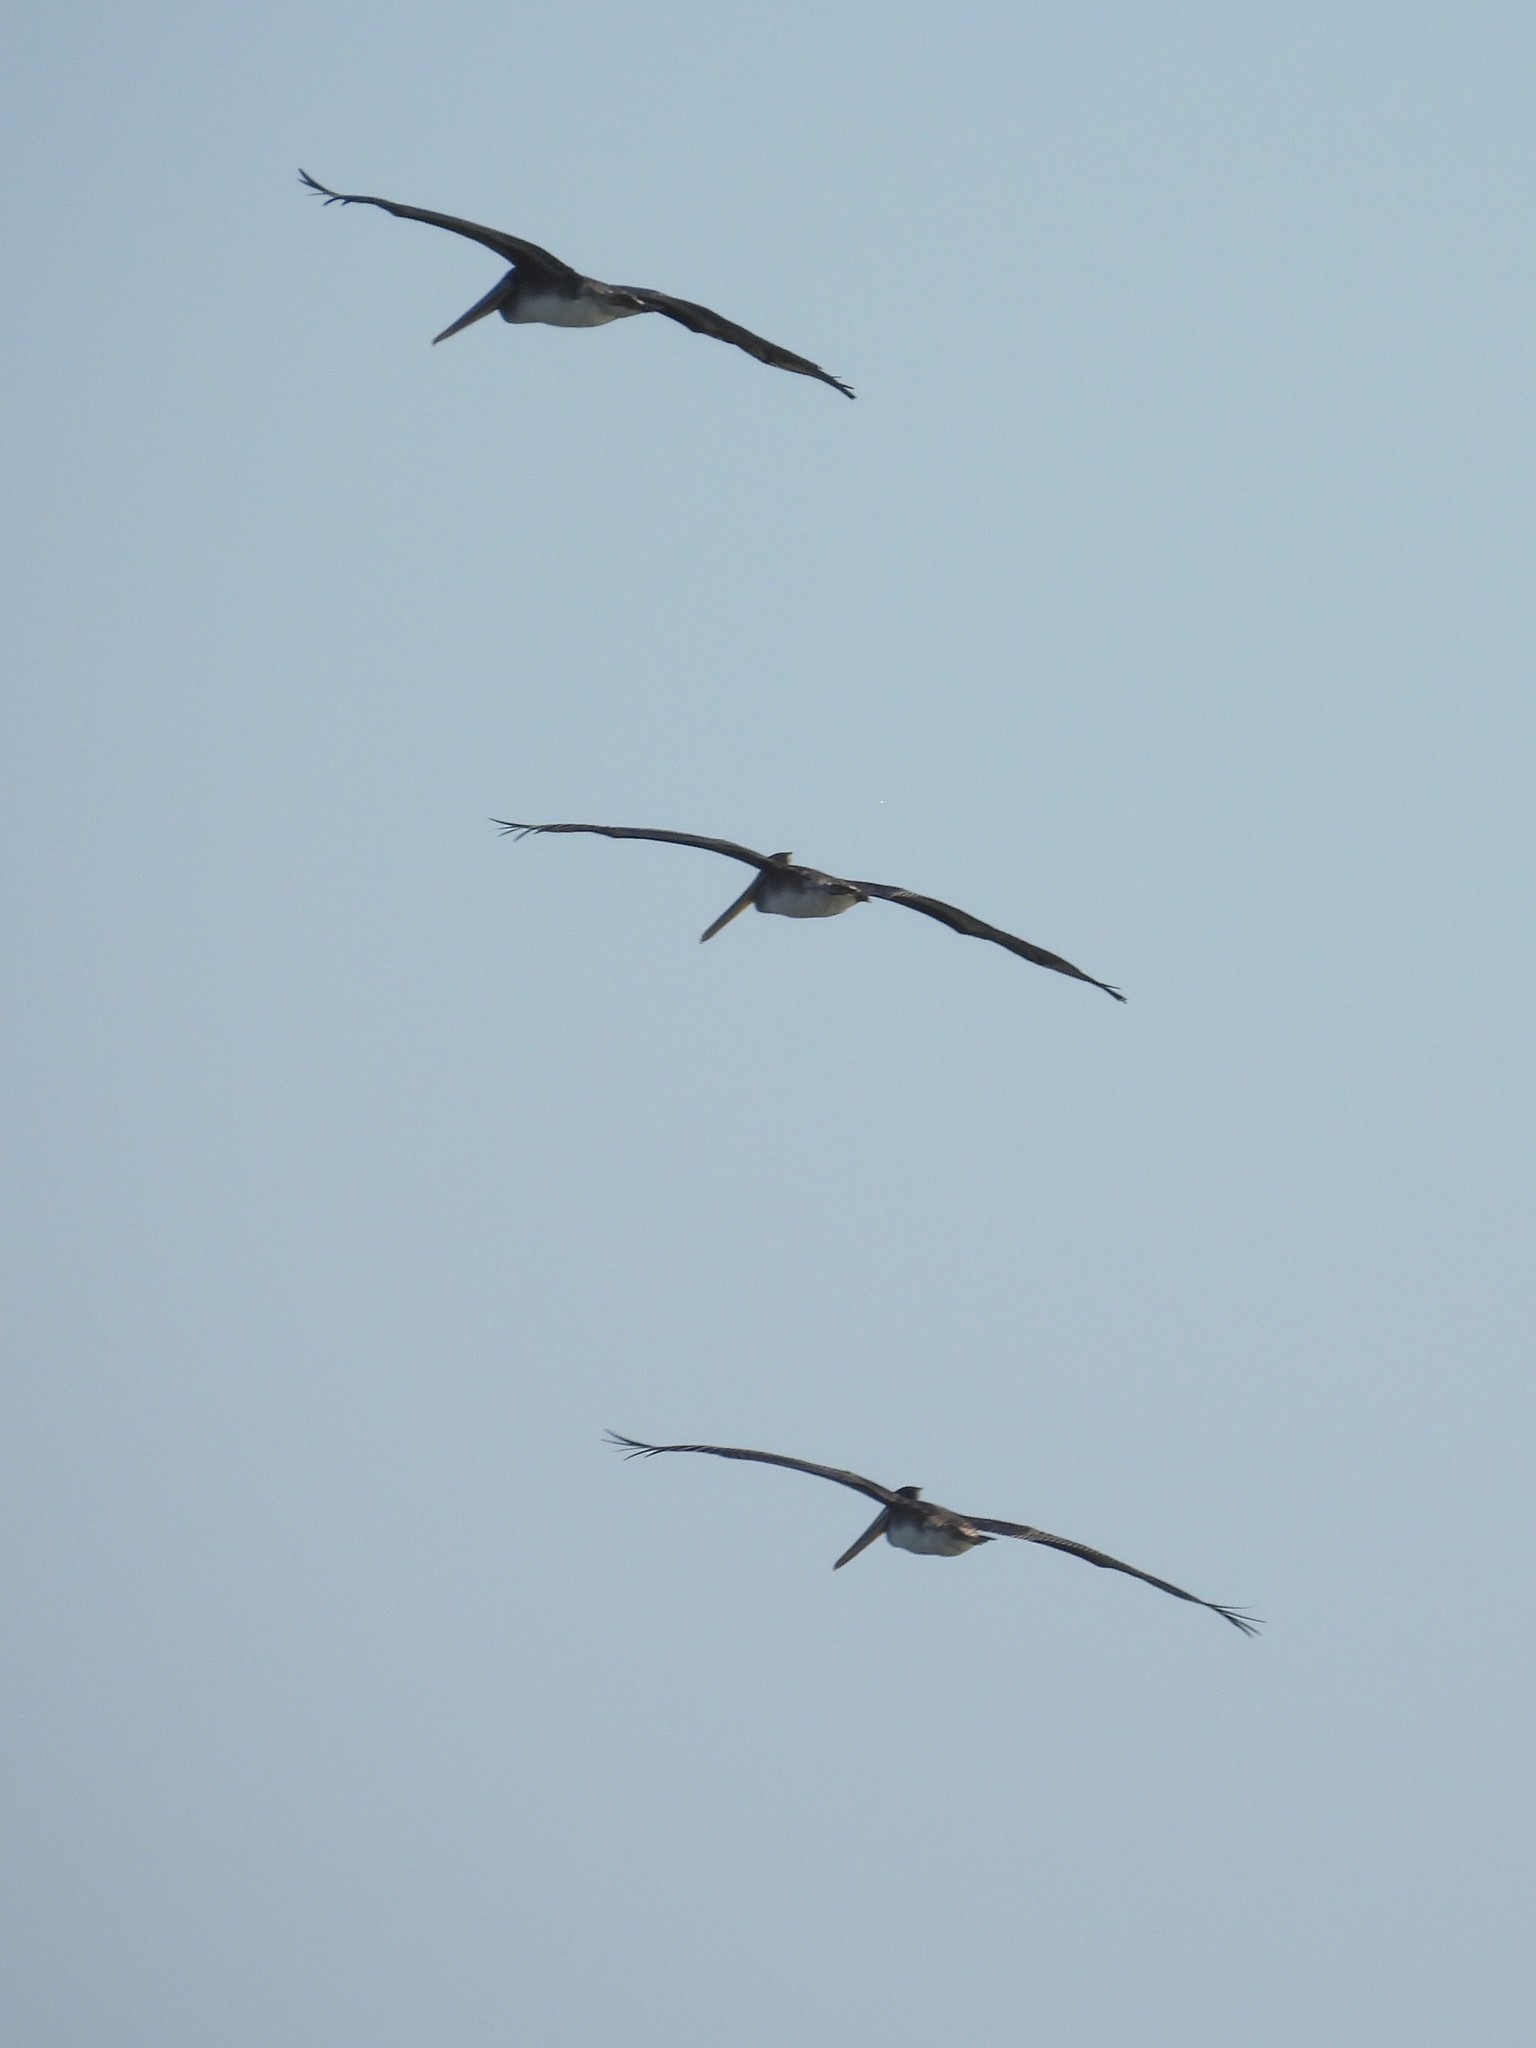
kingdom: Animalia
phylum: Chordata
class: Aves
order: Pelecaniformes
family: Pelecanidae
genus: Pelecanus
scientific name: Pelecanus occidentalis
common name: Brown pelican
